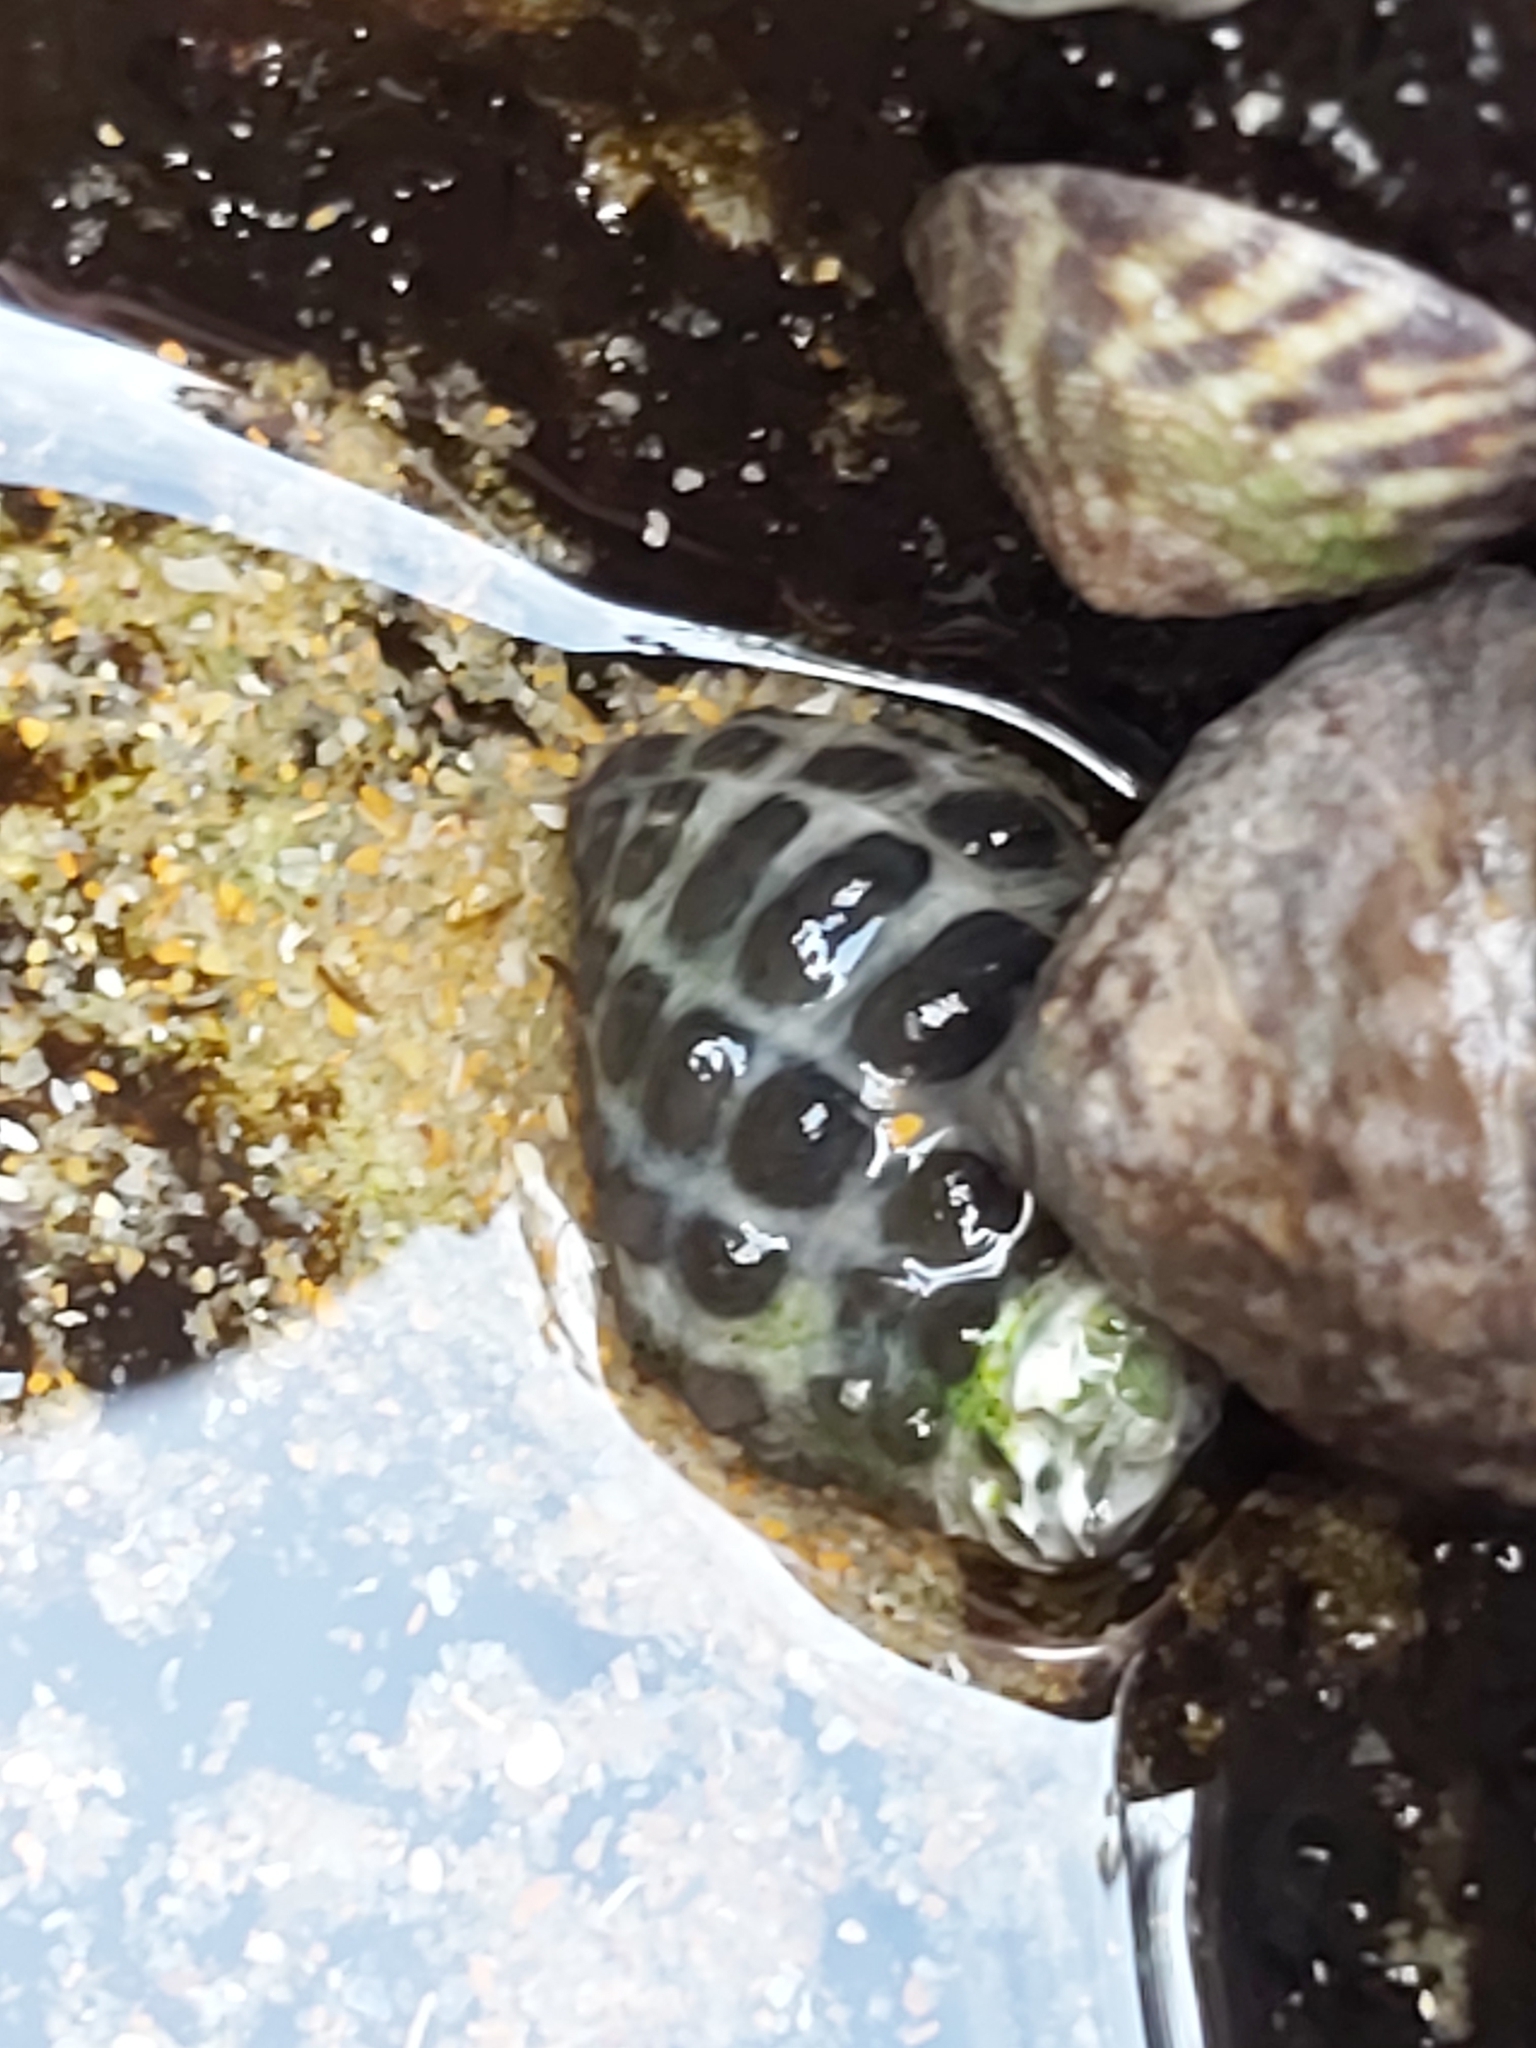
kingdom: Animalia
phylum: Mollusca
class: Gastropoda
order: Neogastropoda
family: Muricidae
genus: Tenguella
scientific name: Tenguella marginalba
